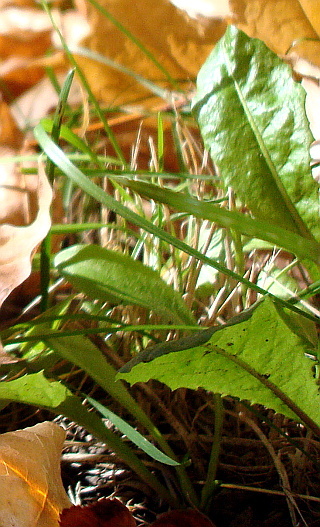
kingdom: Plantae
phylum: Tracheophyta
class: Magnoliopsida
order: Asterales
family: Asteraceae
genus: Taraxacum
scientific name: Taraxacum officinale
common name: Common dandelion
